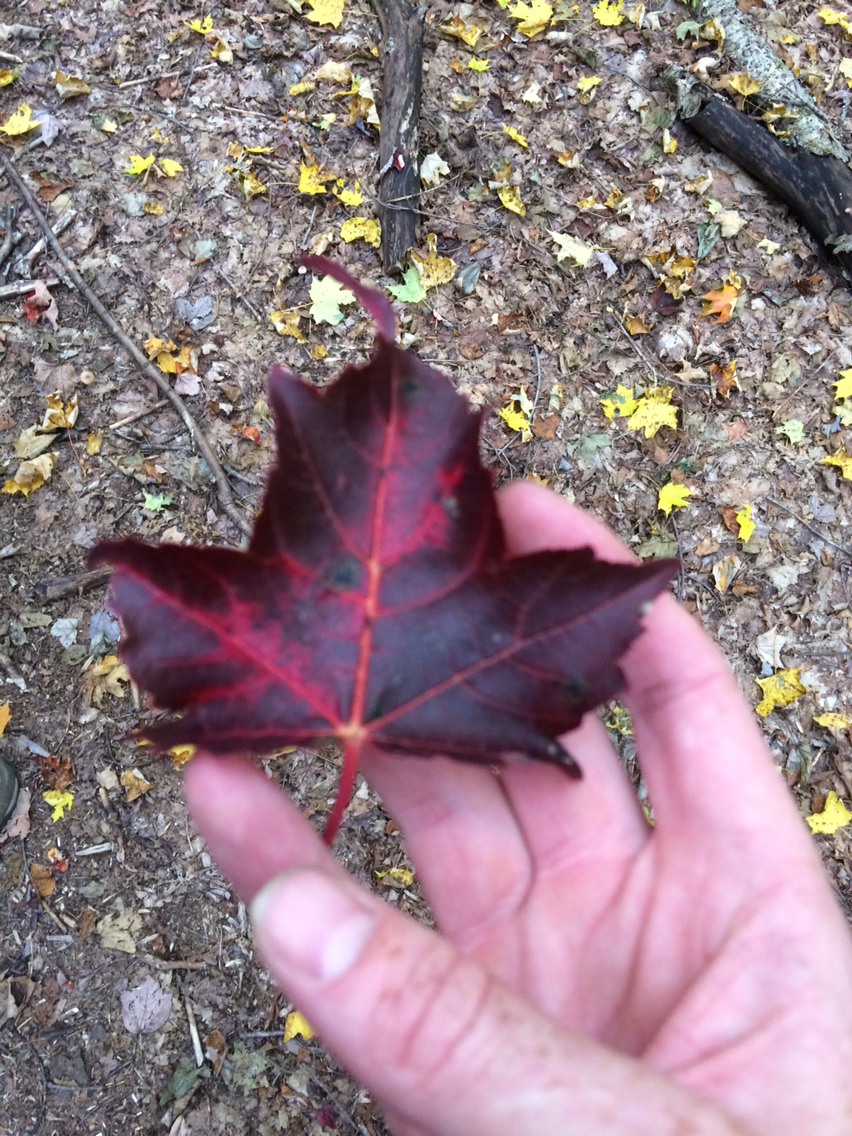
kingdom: Plantae
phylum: Tracheophyta
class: Magnoliopsida
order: Sapindales
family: Sapindaceae
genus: Acer
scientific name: Acer rubrum
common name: Red maple
